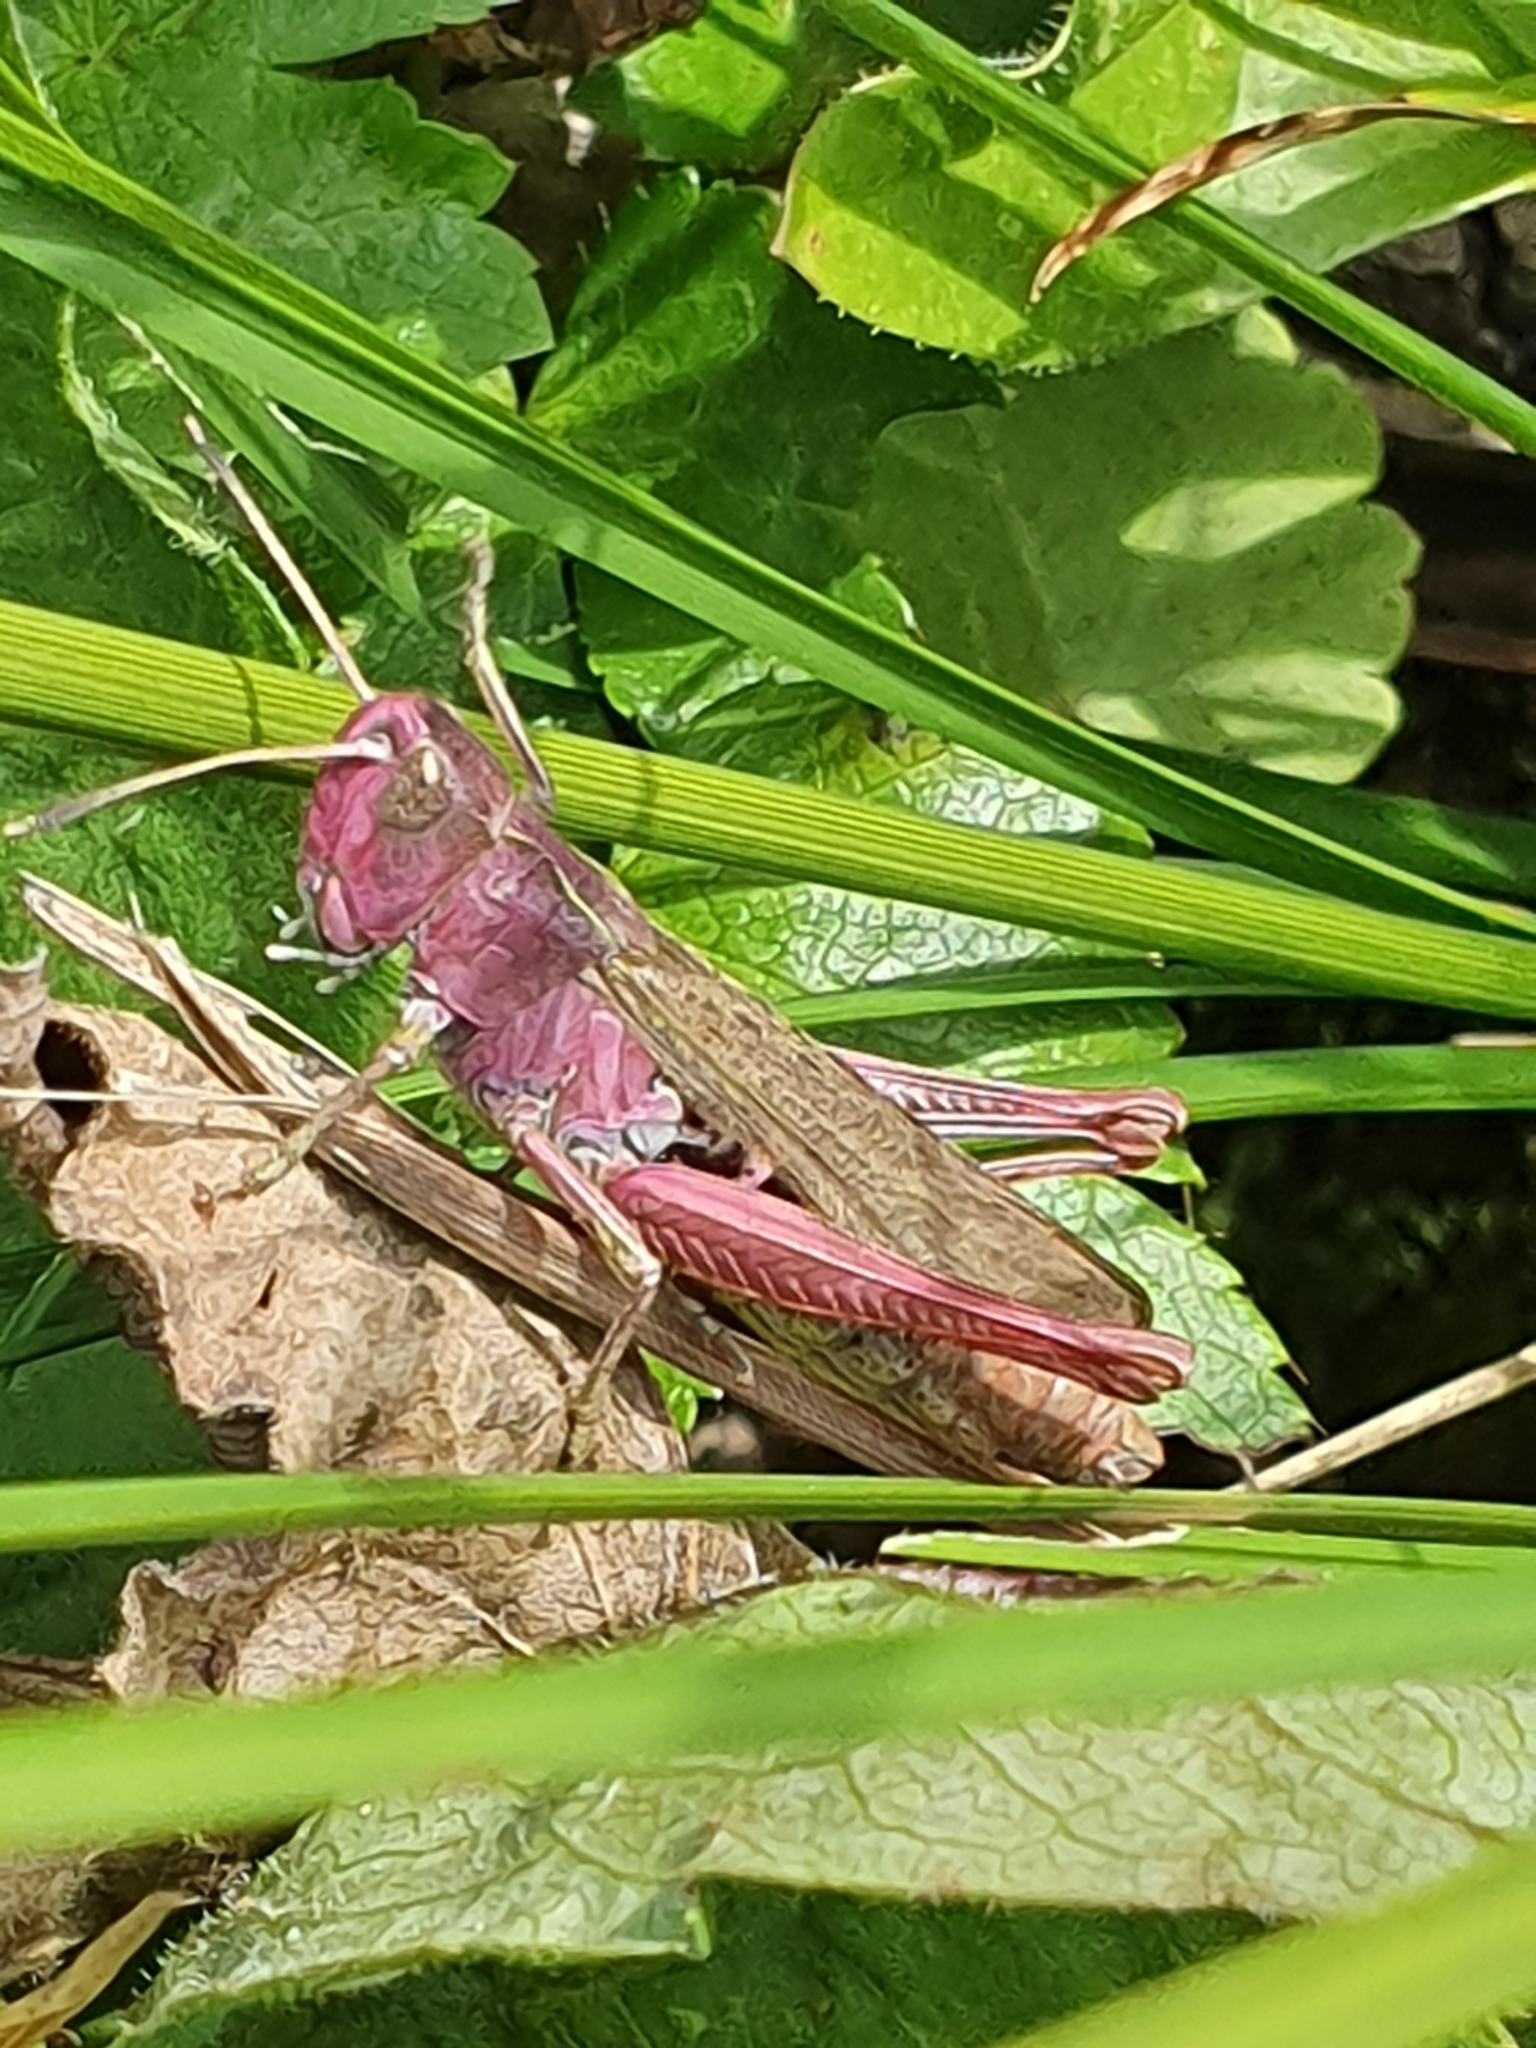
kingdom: Animalia
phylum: Arthropoda
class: Insecta
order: Orthoptera
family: Acrididae
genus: Gomphocerippus
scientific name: Gomphocerippus rufus
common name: Rufous grasshopper
